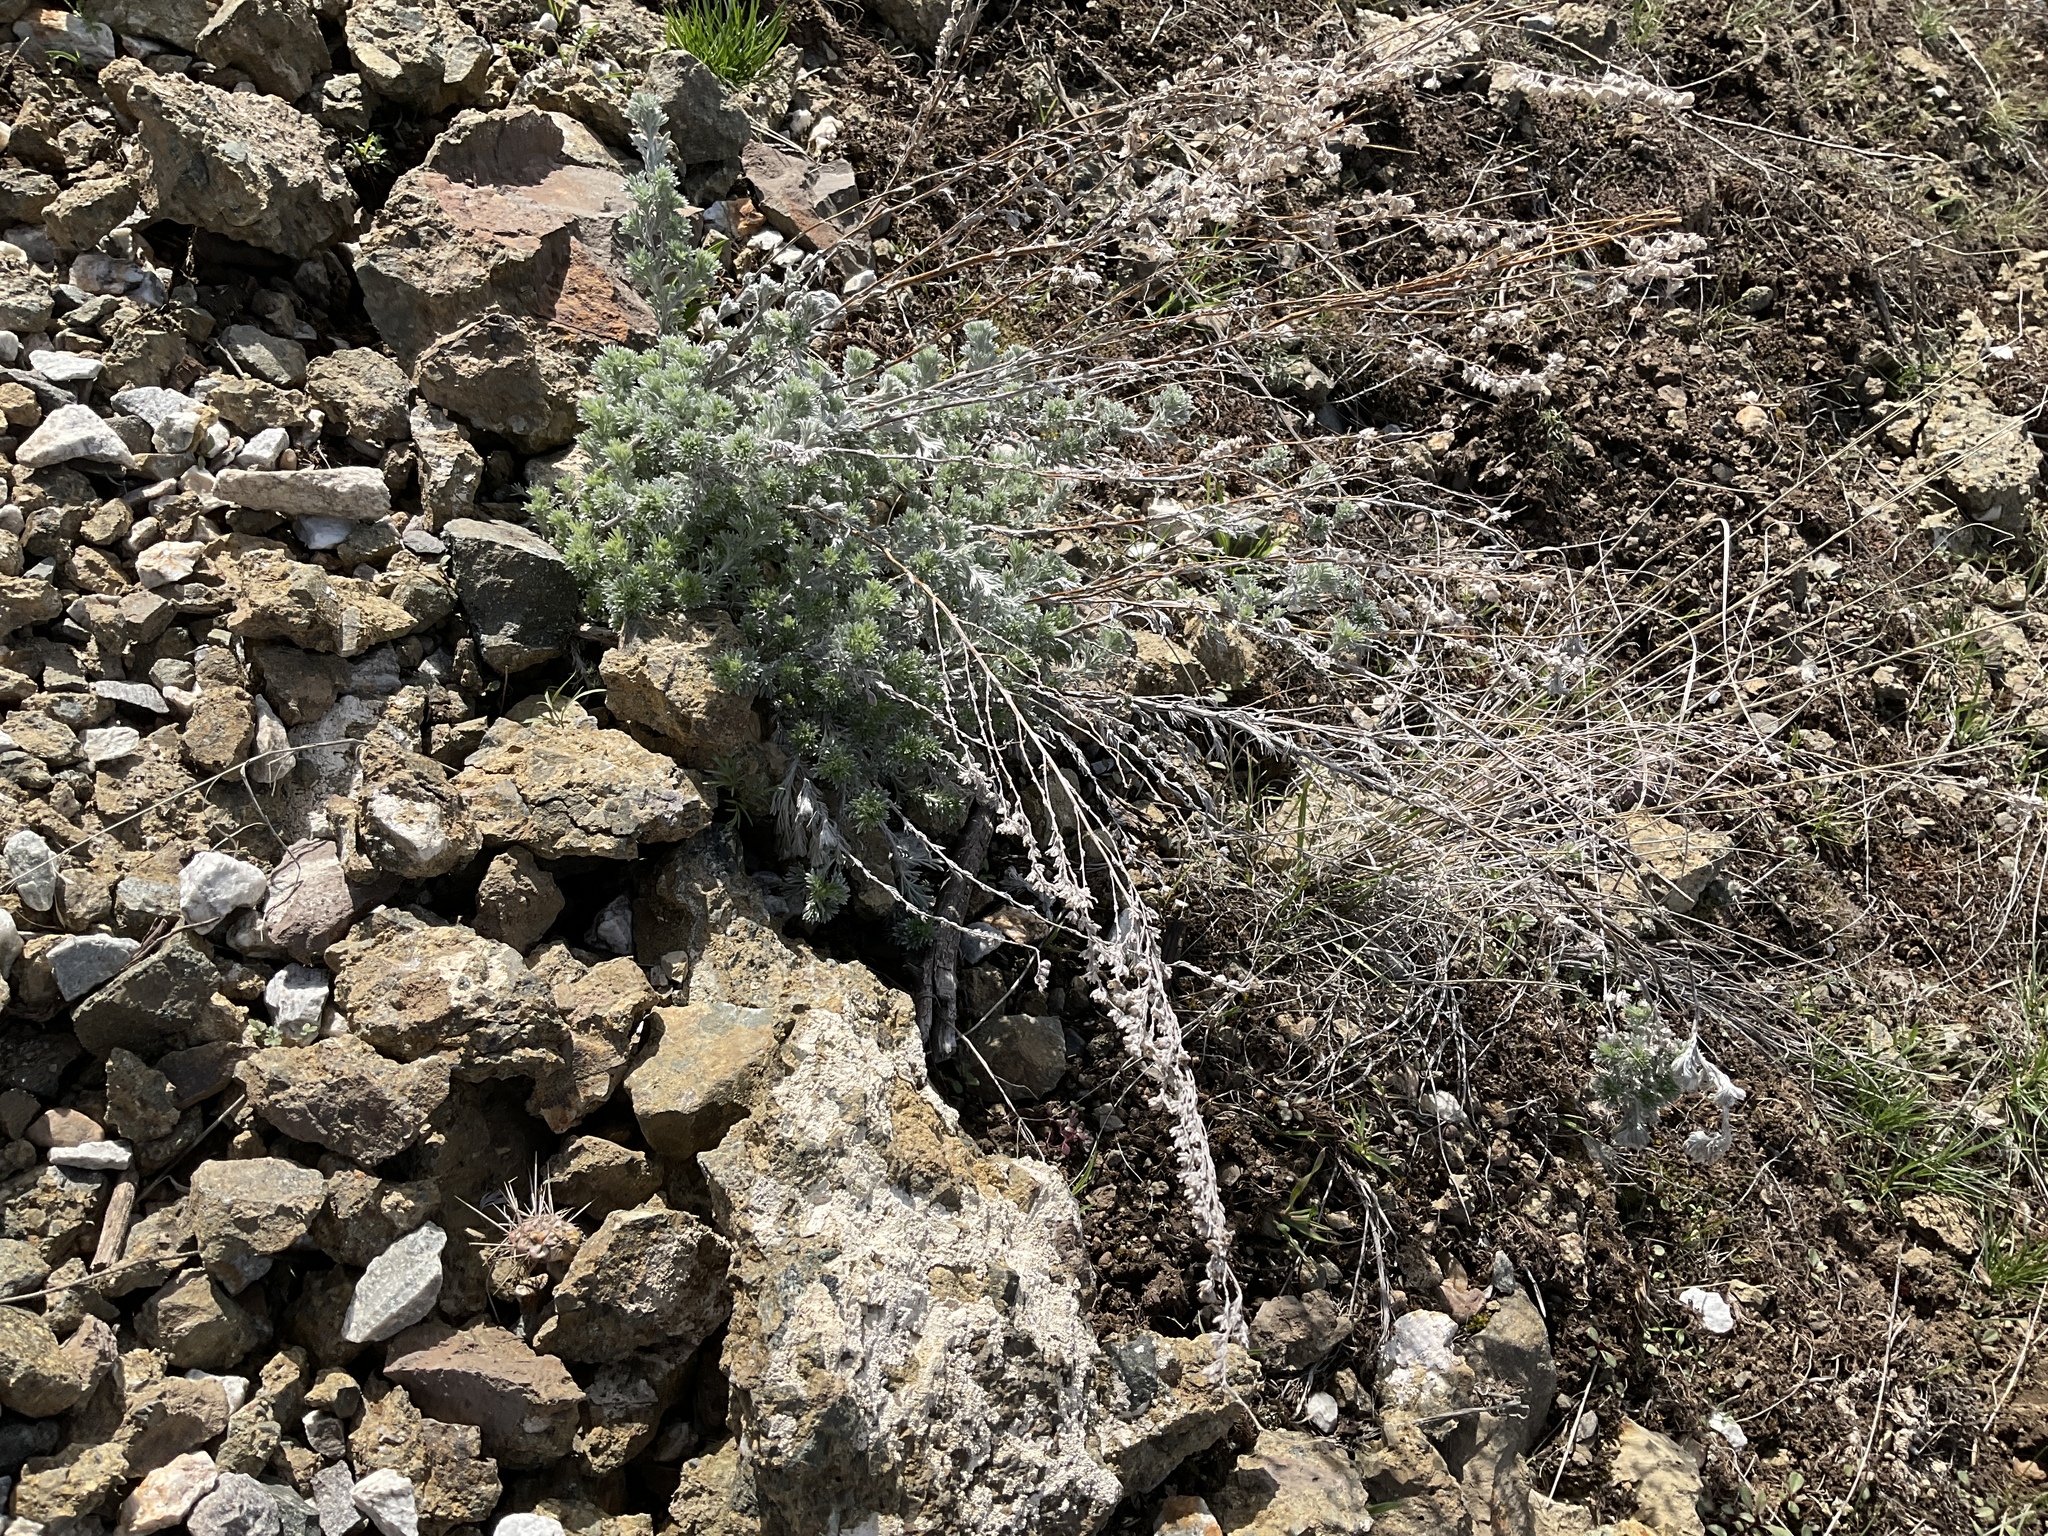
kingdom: Plantae
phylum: Tracheophyta
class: Magnoliopsida
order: Asterales
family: Asteraceae
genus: Artemisia
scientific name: Artemisia frigida
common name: Prairie sagewort
